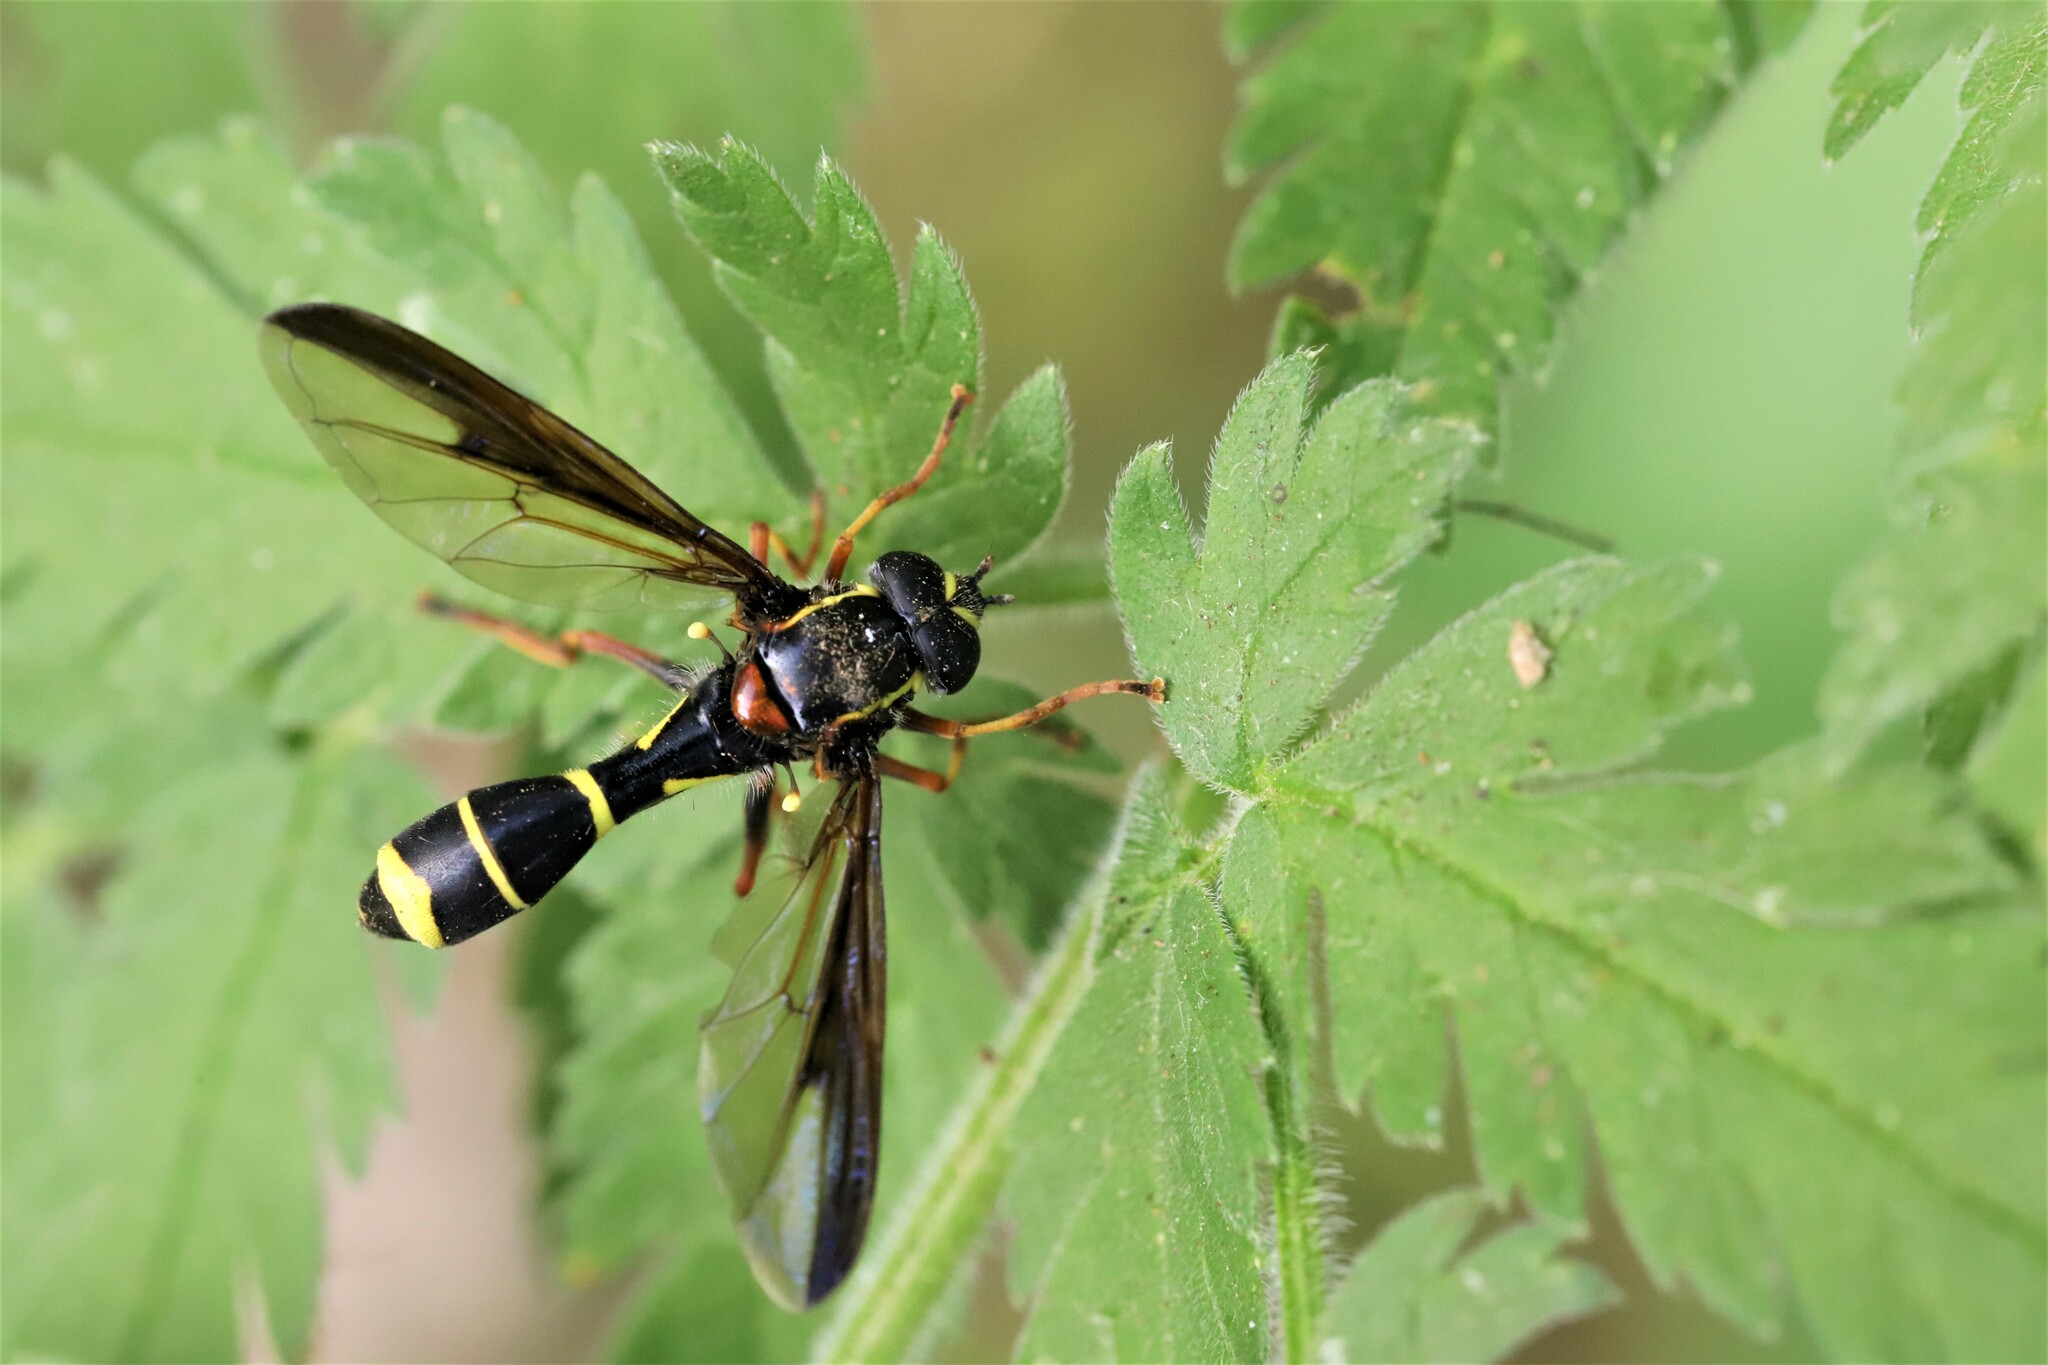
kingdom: Animalia
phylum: Arthropoda
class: Insecta
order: Diptera
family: Syrphidae
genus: Doros
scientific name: Doros profuges
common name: Phantom hoverfly
